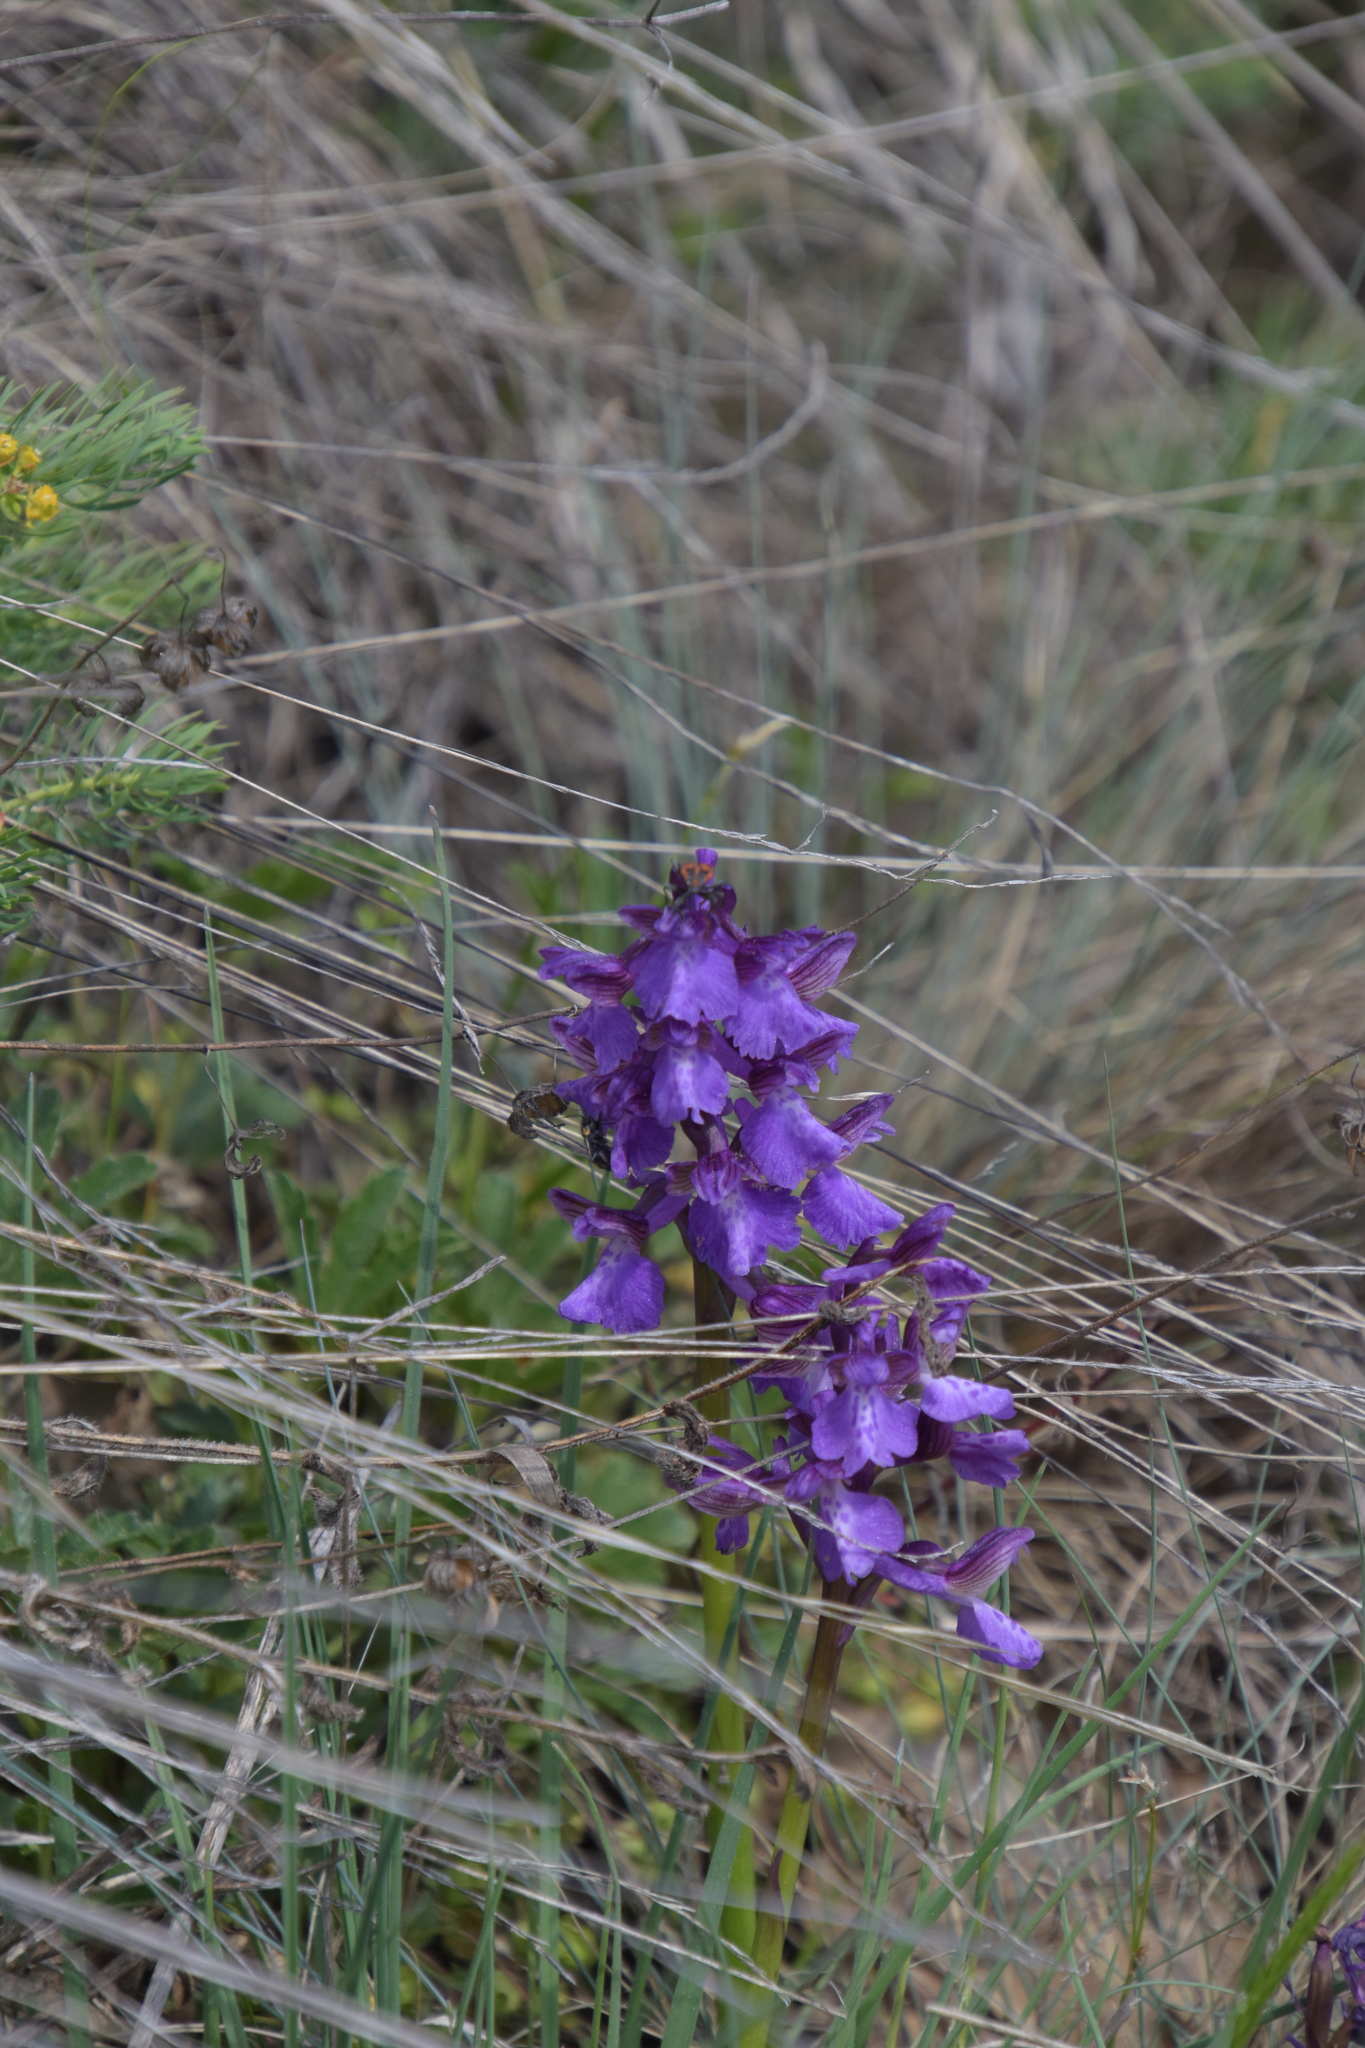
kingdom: Plantae
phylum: Tracheophyta
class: Liliopsida
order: Asparagales
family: Orchidaceae
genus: Anacamptis
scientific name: Anacamptis morio
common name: Green-winged orchid
